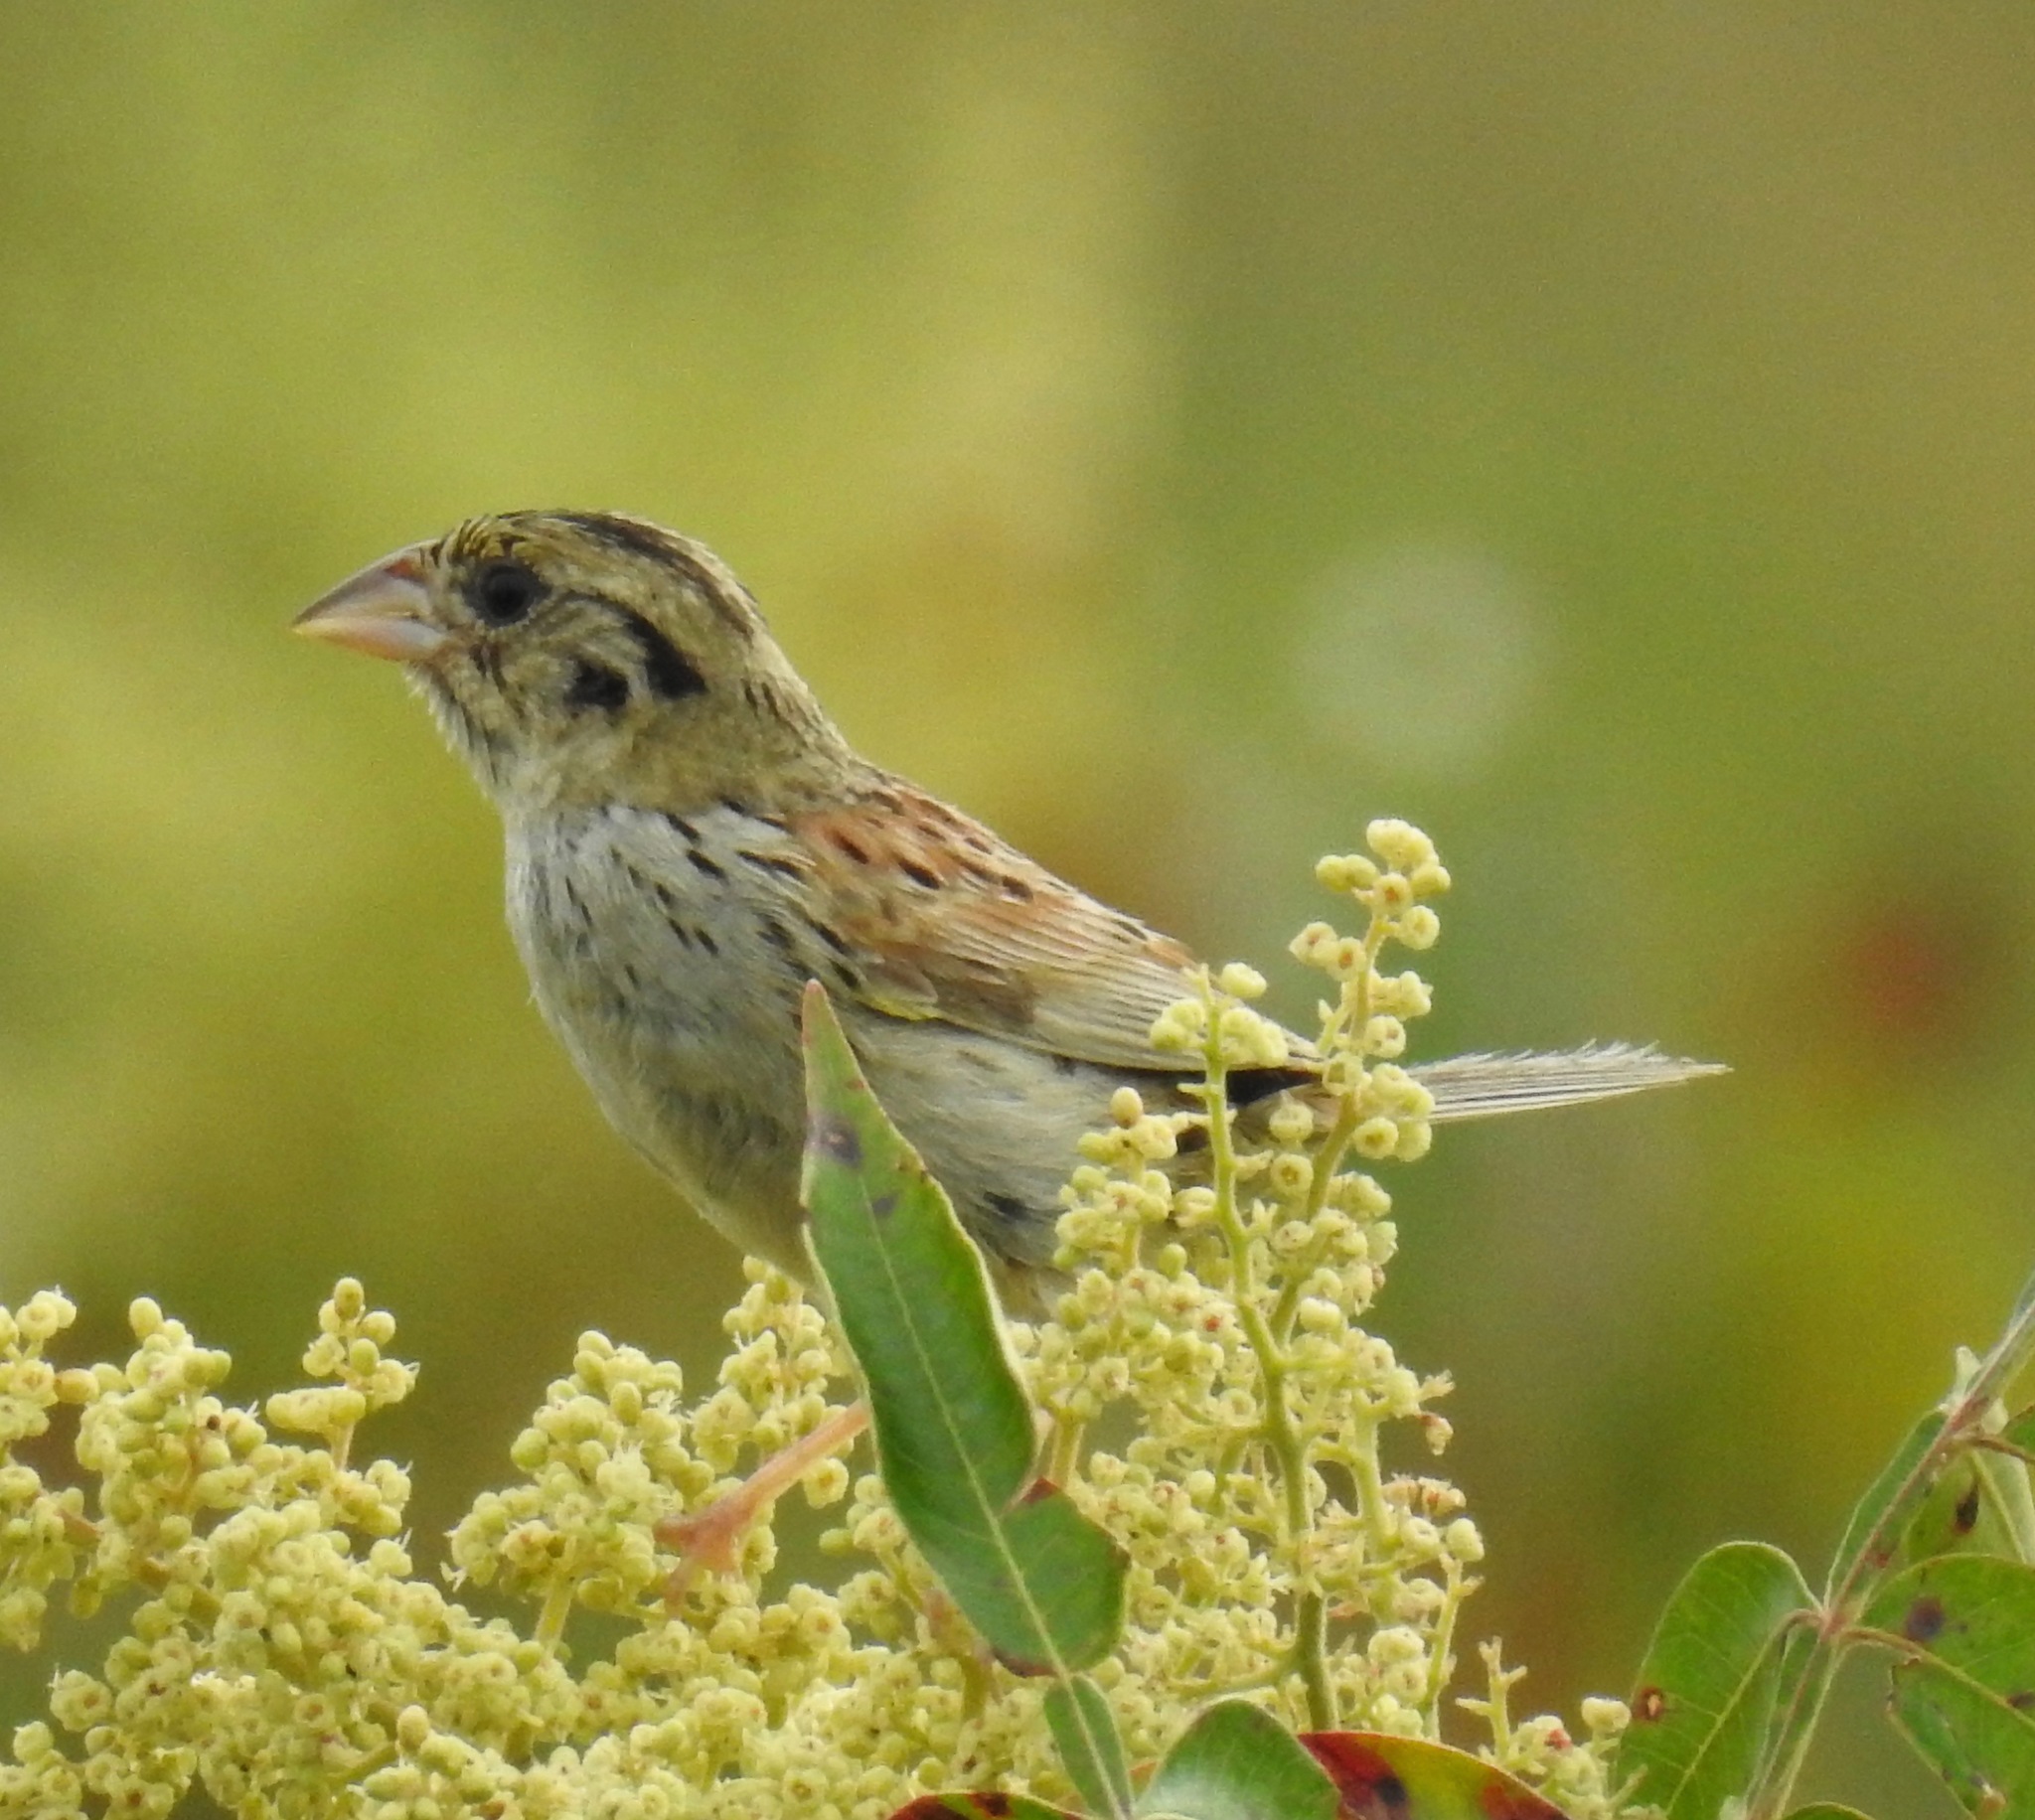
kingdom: Animalia
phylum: Chordata
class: Aves
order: Passeriformes
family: Passerellidae
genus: Centronyx
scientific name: Centronyx henslowii
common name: Henslow's sparrow
